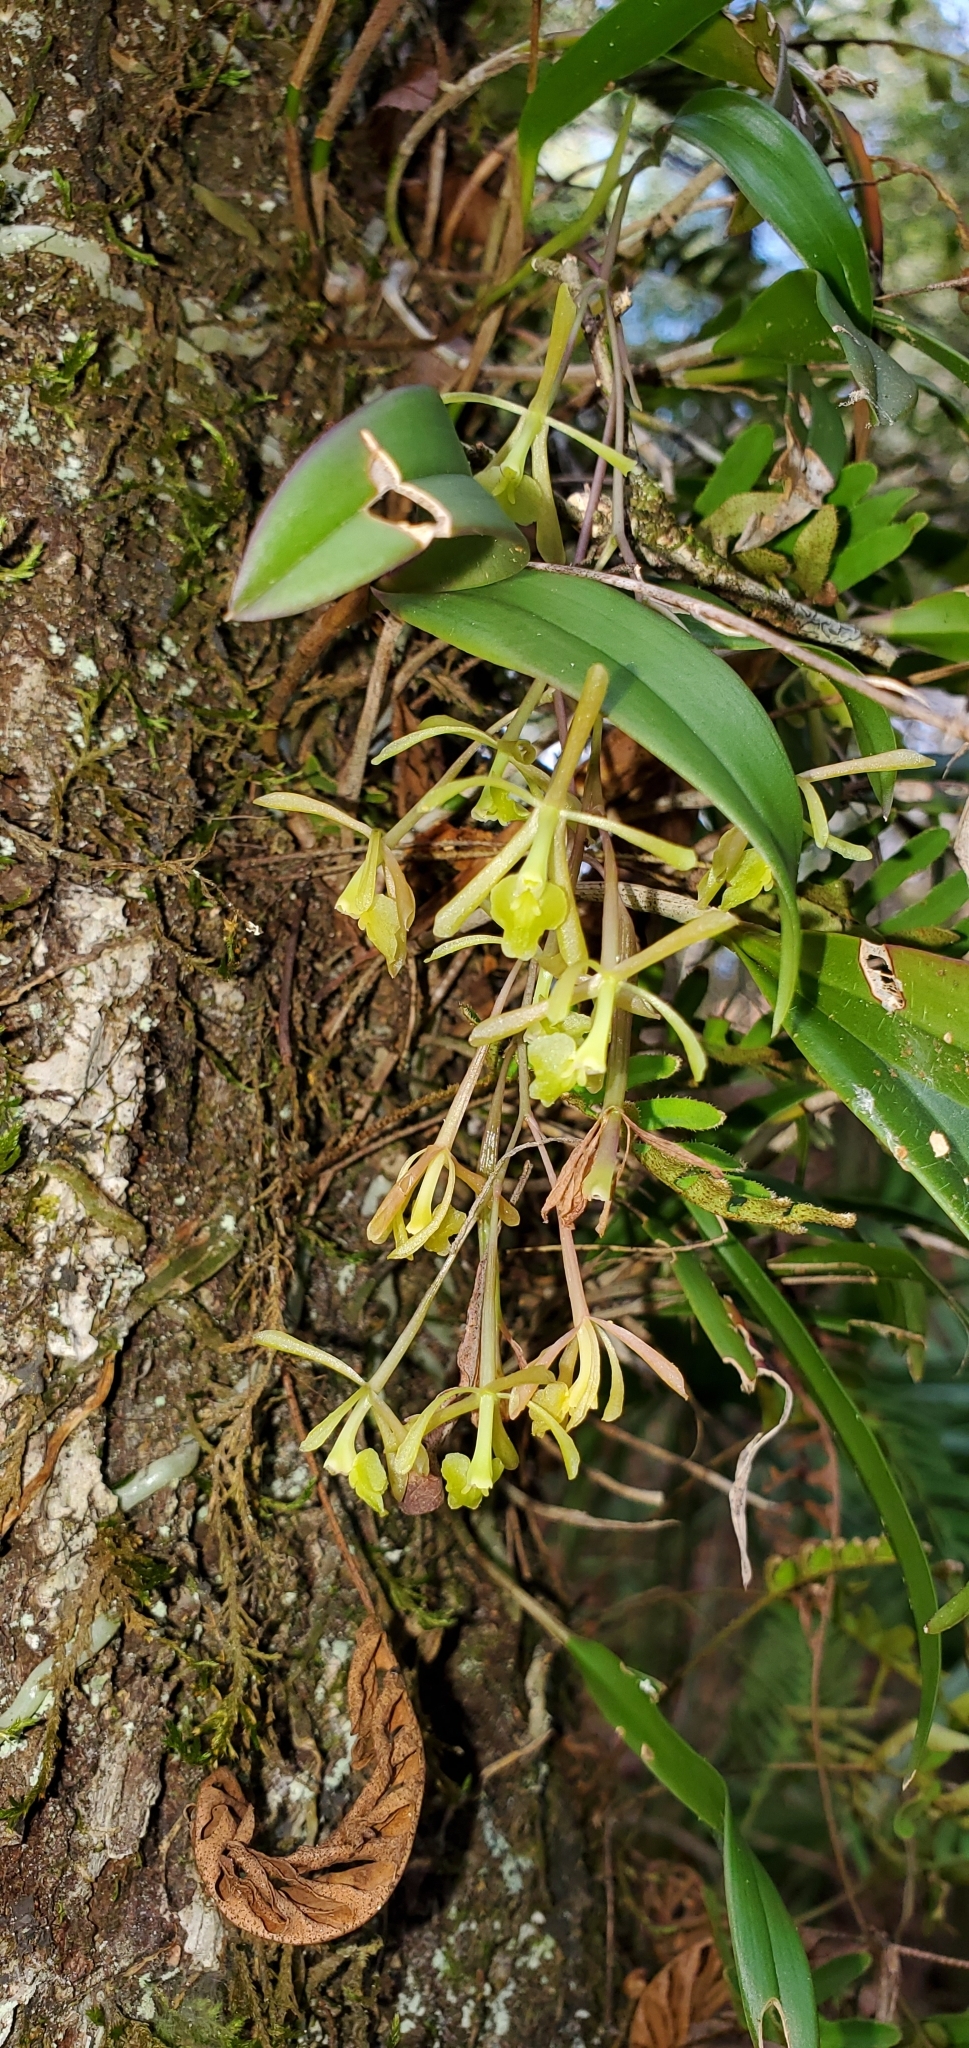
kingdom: Plantae
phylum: Tracheophyta
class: Liliopsida
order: Asparagales
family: Orchidaceae
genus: Epidendrum
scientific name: Epidendrum conopseum
